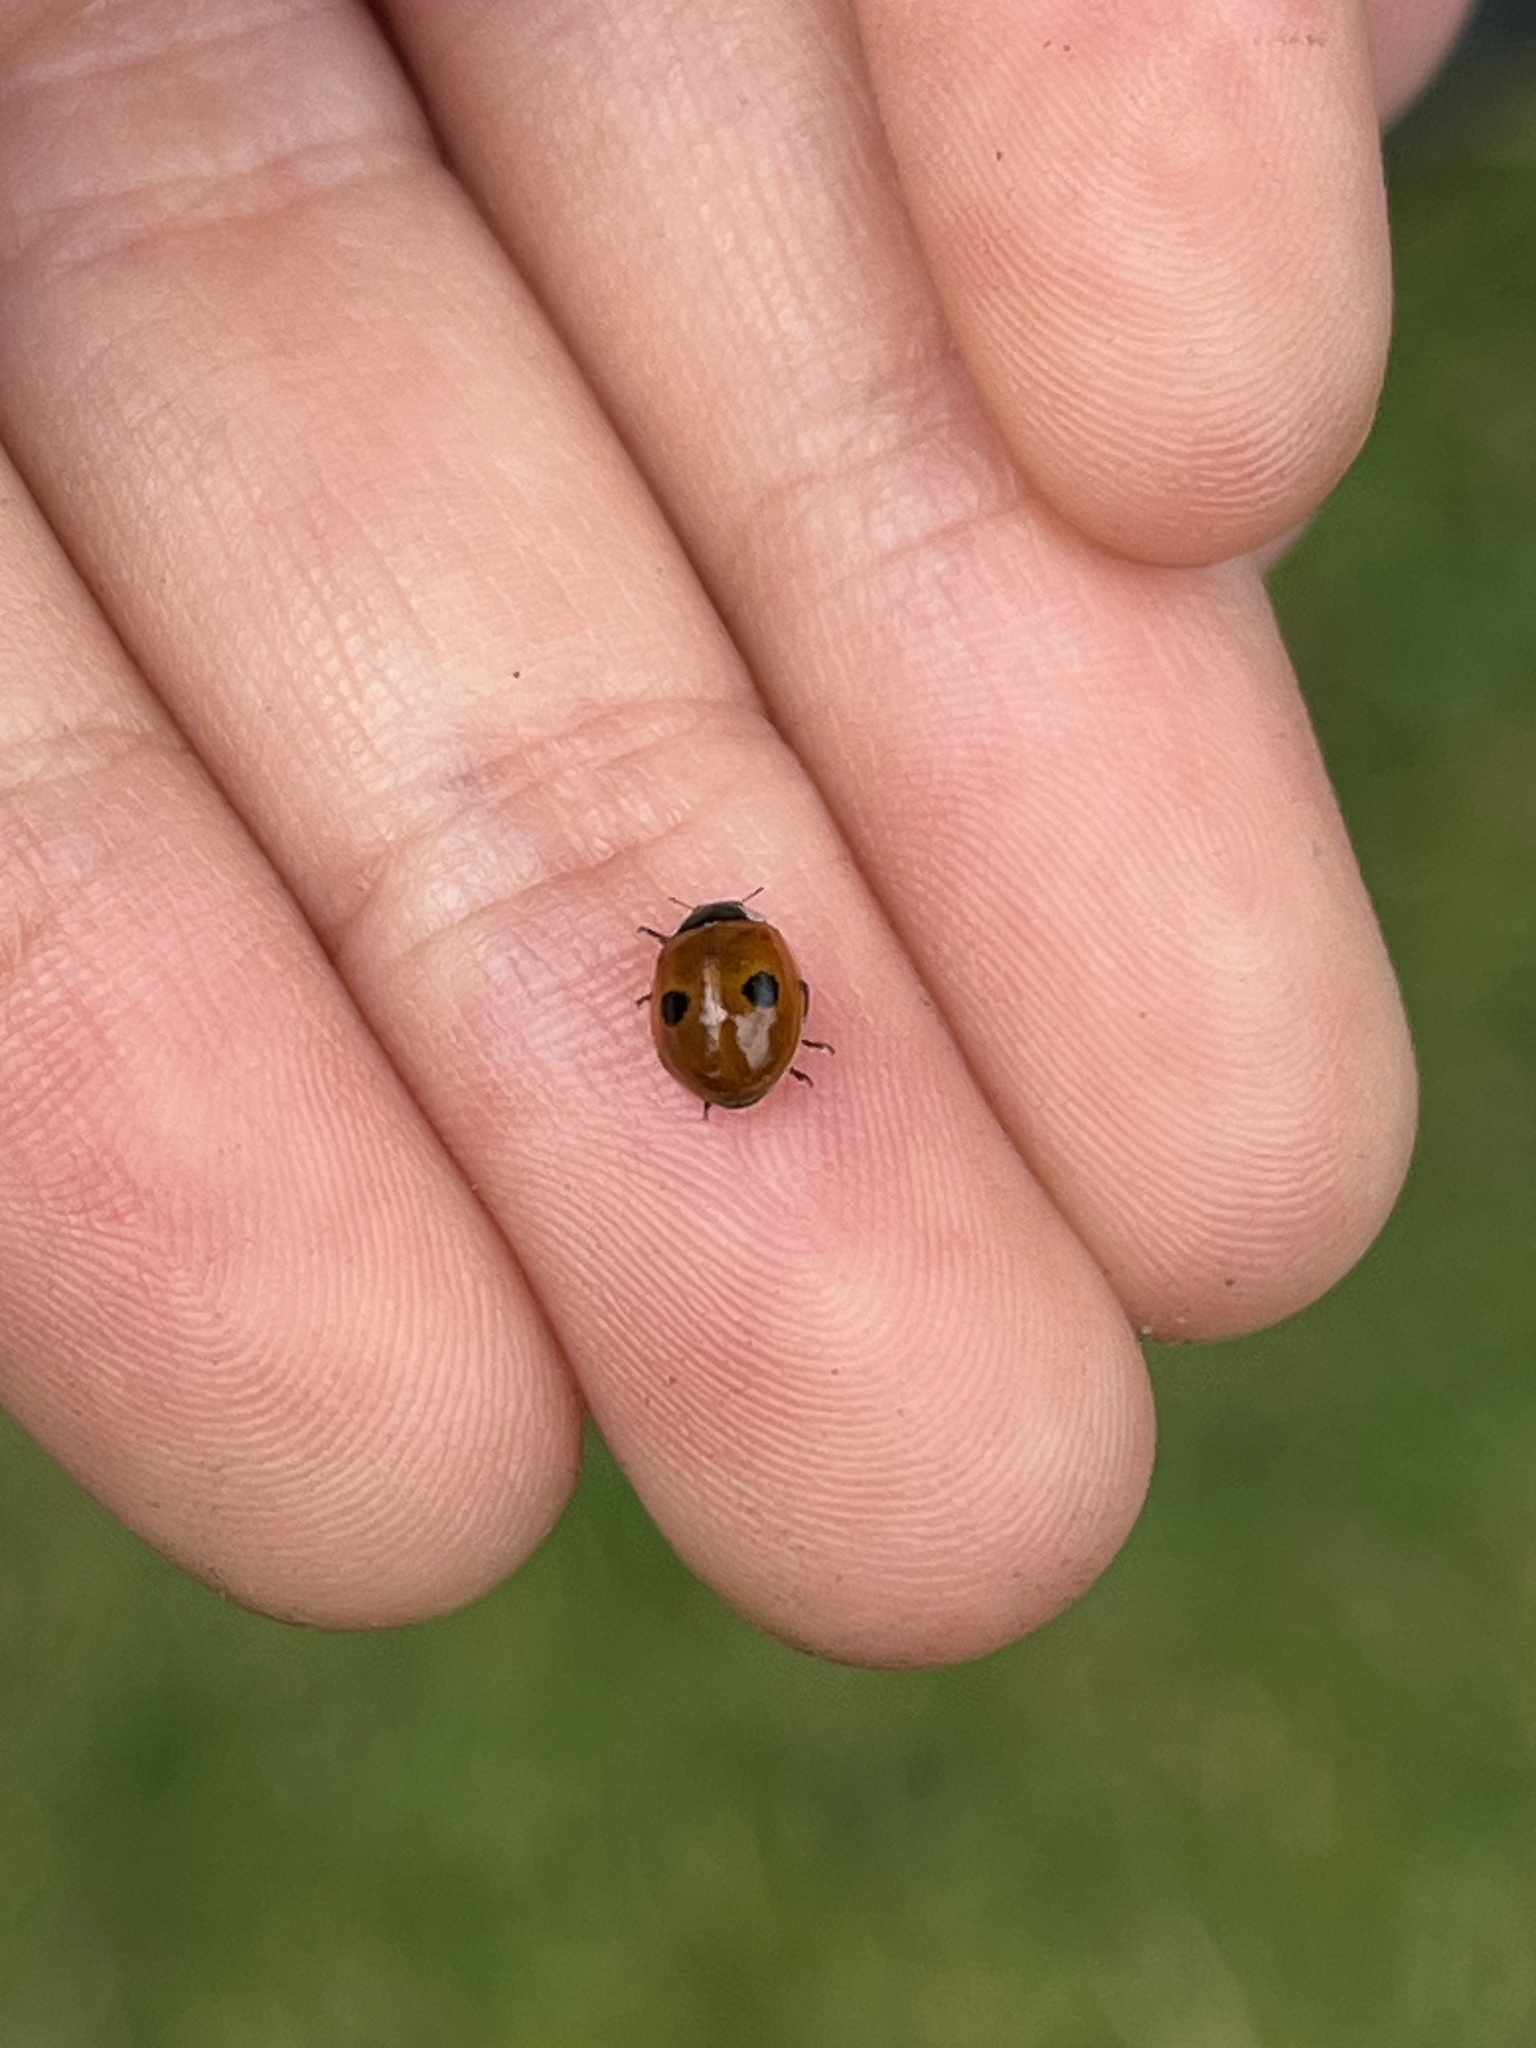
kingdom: Animalia
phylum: Arthropoda
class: Insecta
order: Coleoptera
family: Coccinellidae
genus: Adalia
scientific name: Adalia bipunctata
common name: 2-spot ladybird
